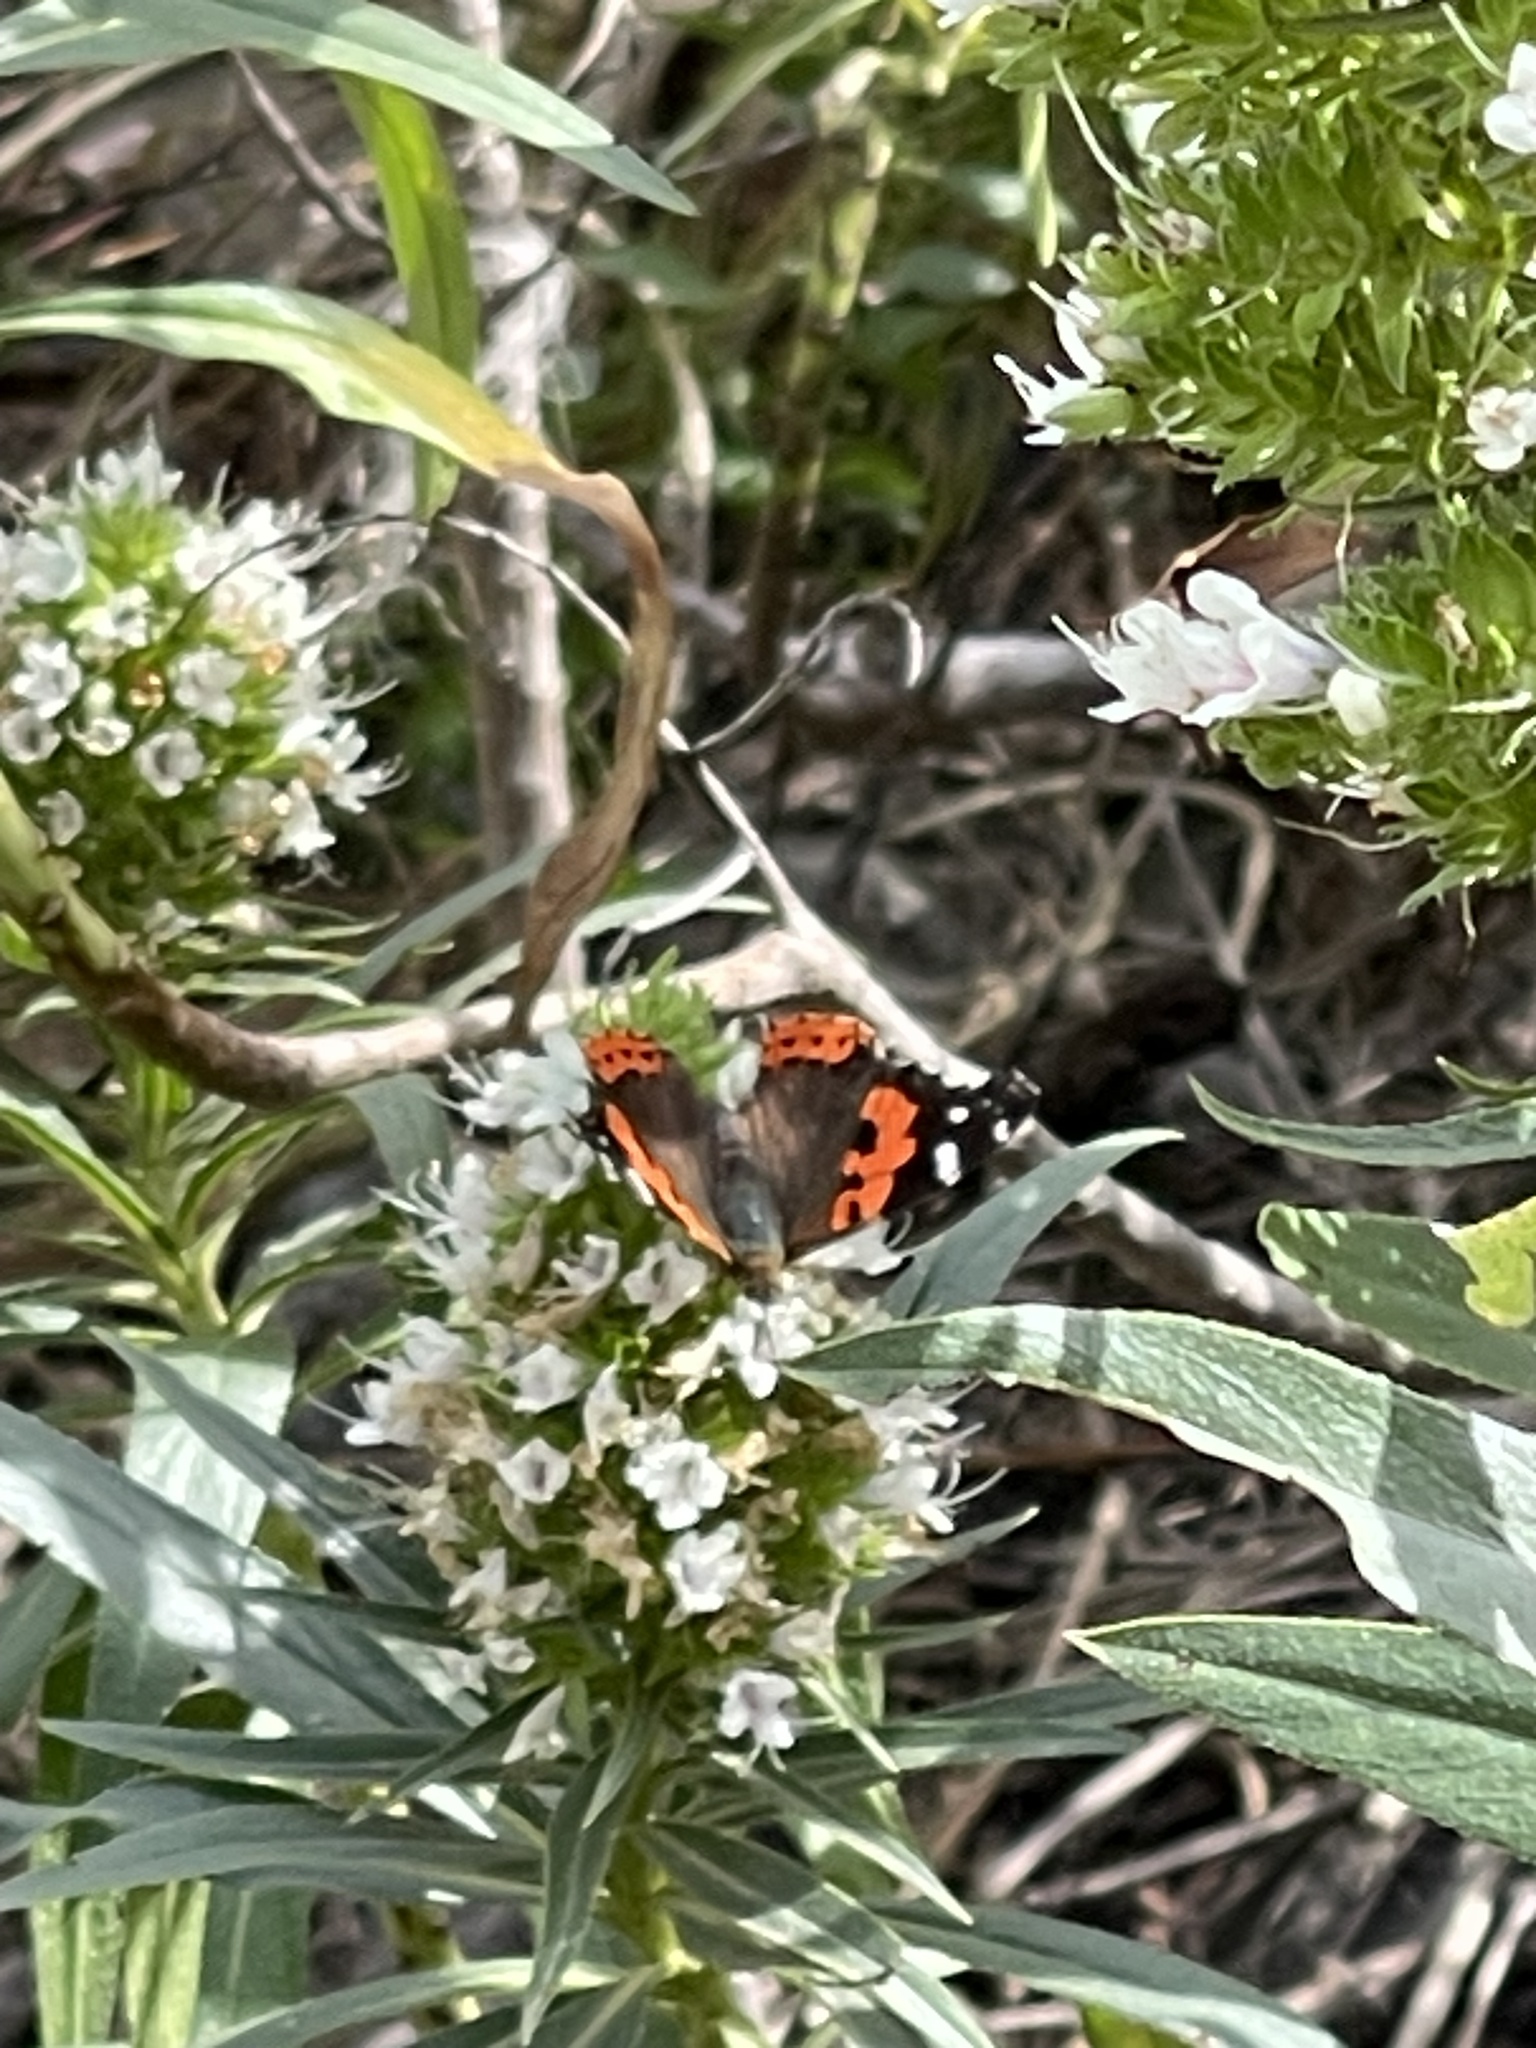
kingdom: Animalia
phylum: Arthropoda
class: Insecta
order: Lepidoptera
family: Nymphalidae
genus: Vanessa
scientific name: Vanessa vulcania
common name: Canary red admiral
